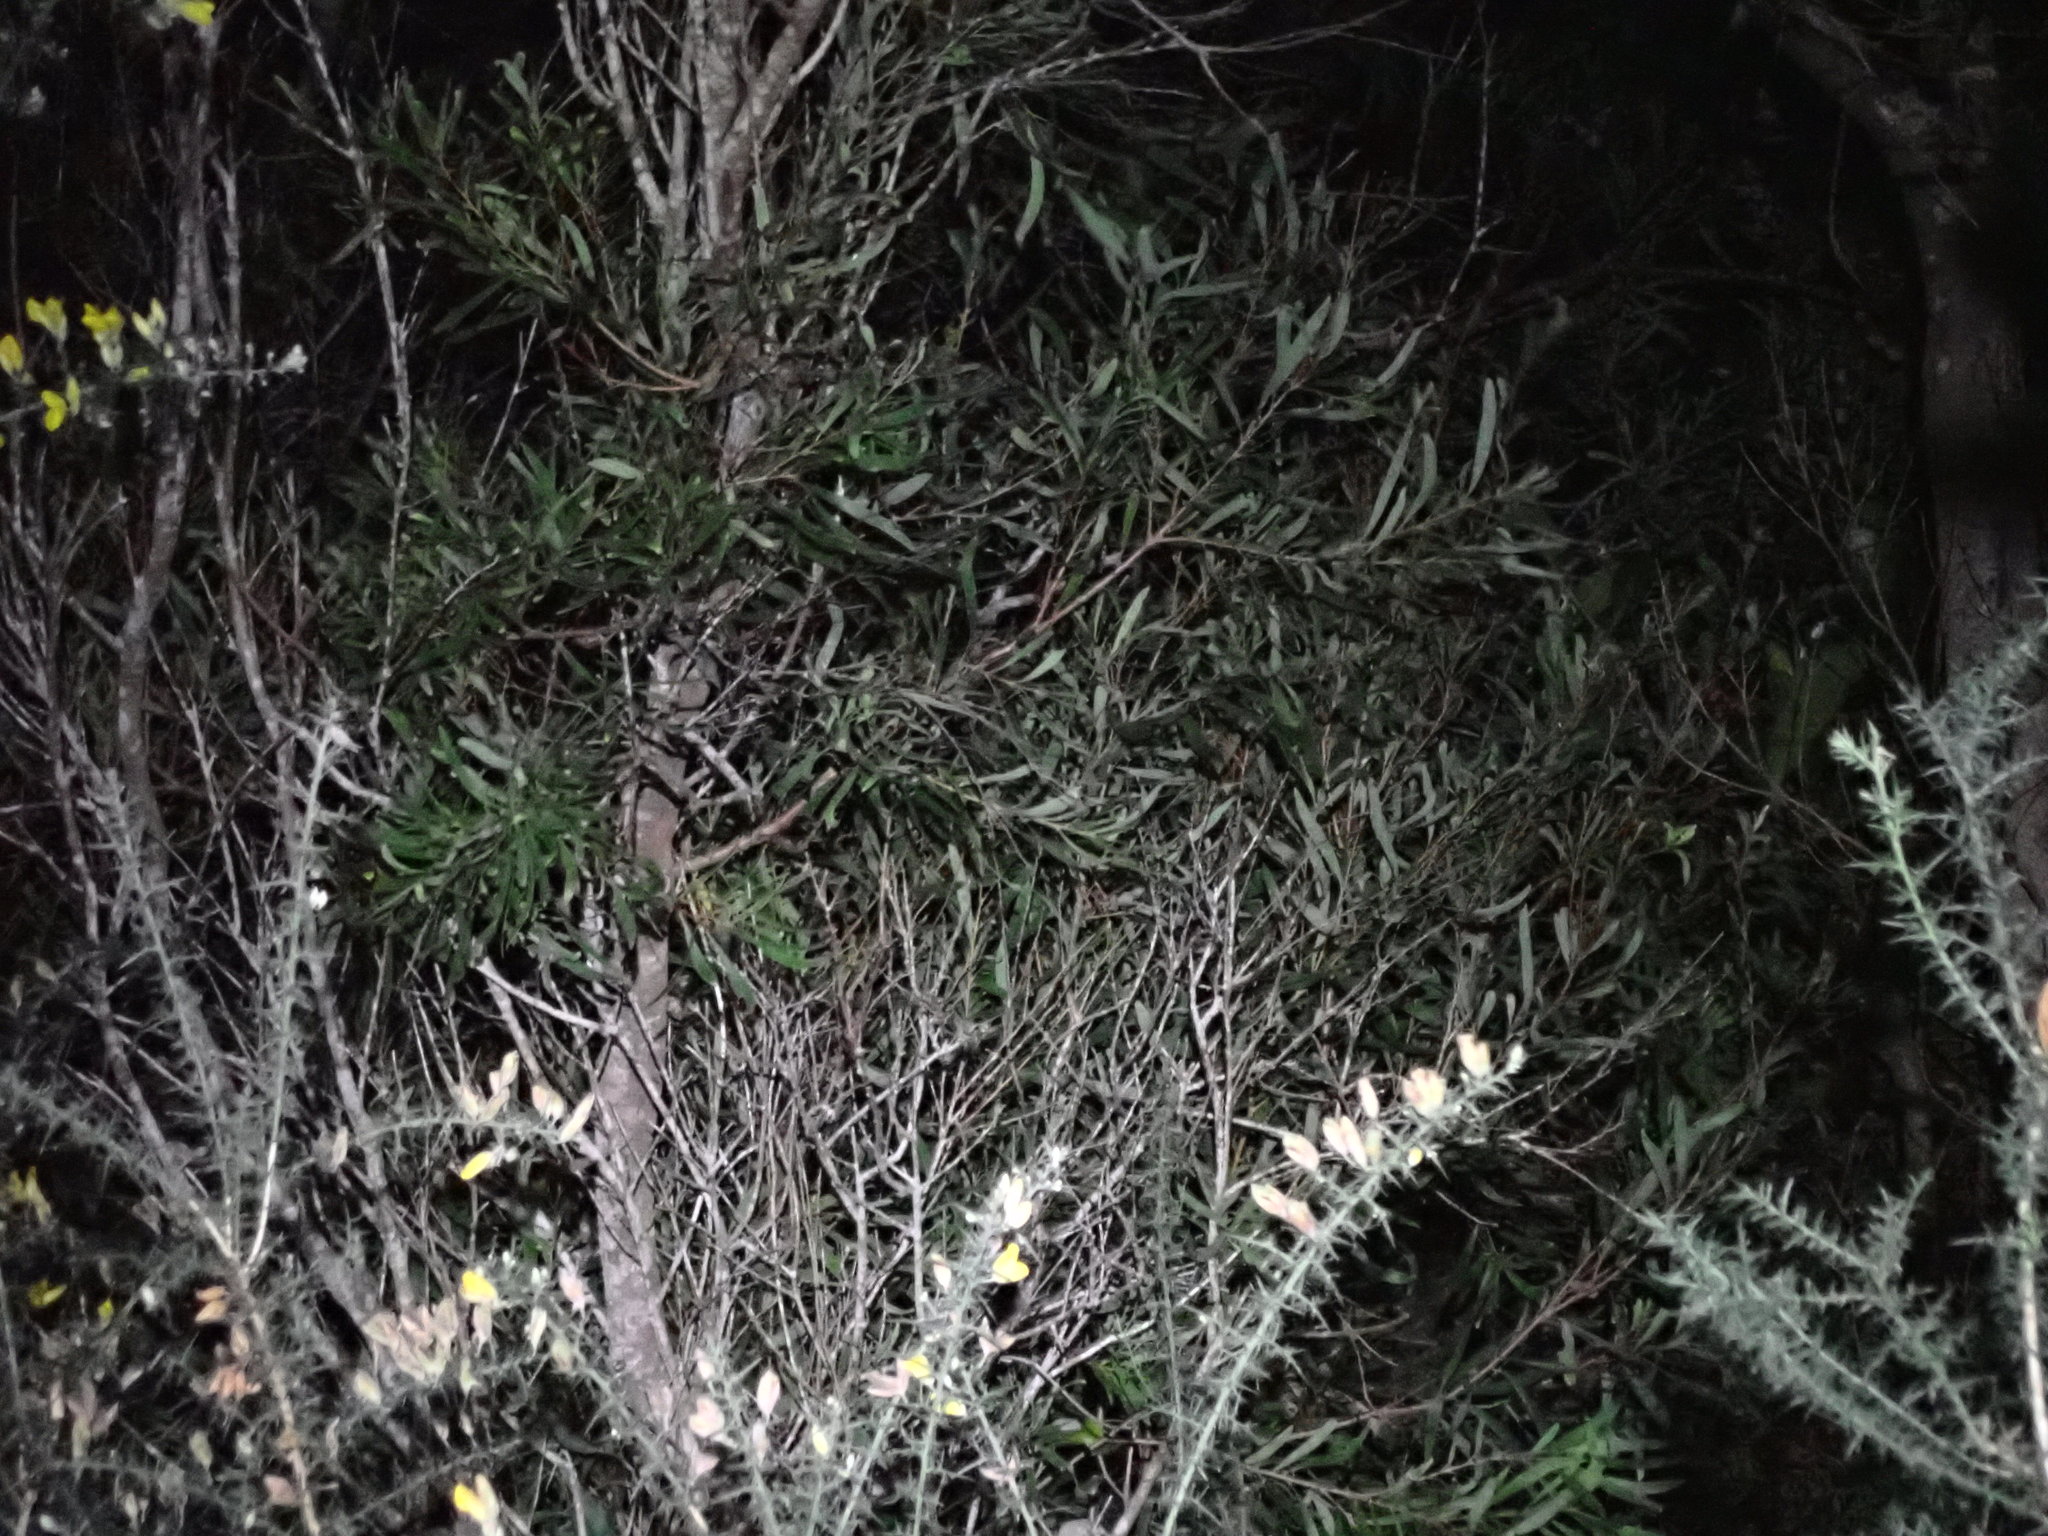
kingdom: Plantae
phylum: Tracheophyta
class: Magnoliopsida
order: Proteales
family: Proteaceae
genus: Hakea
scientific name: Hakea salicifolia
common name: Willow hakea
